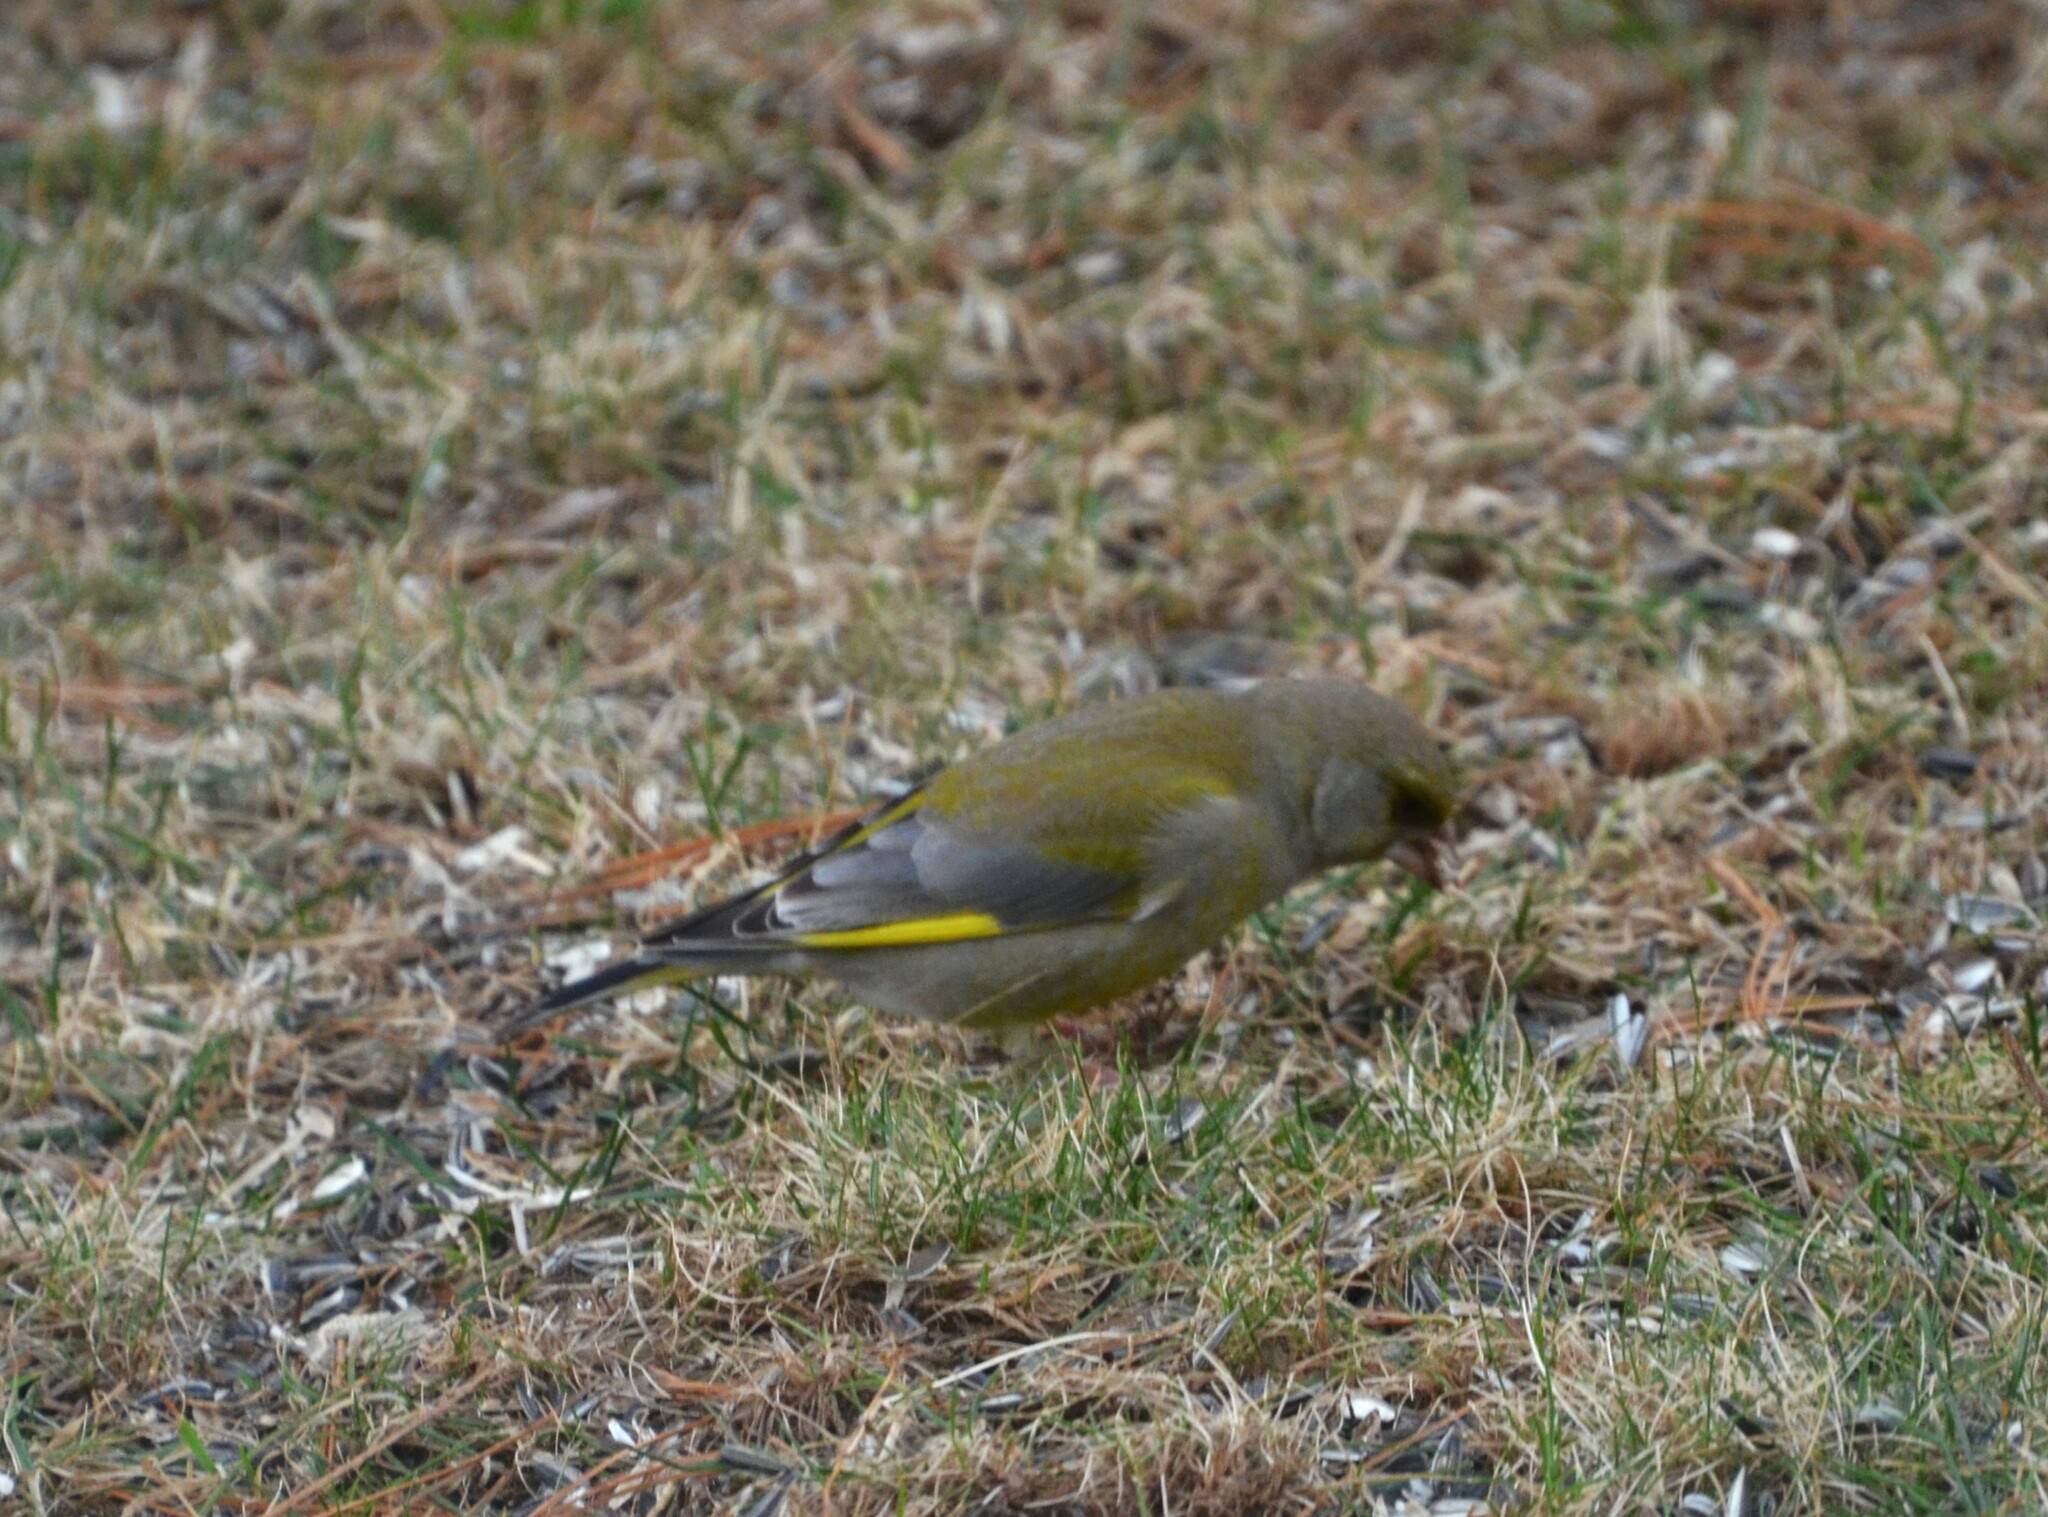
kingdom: Plantae
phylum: Tracheophyta
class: Liliopsida
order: Poales
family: Poaceae
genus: Chloris
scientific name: Chloris chloris
